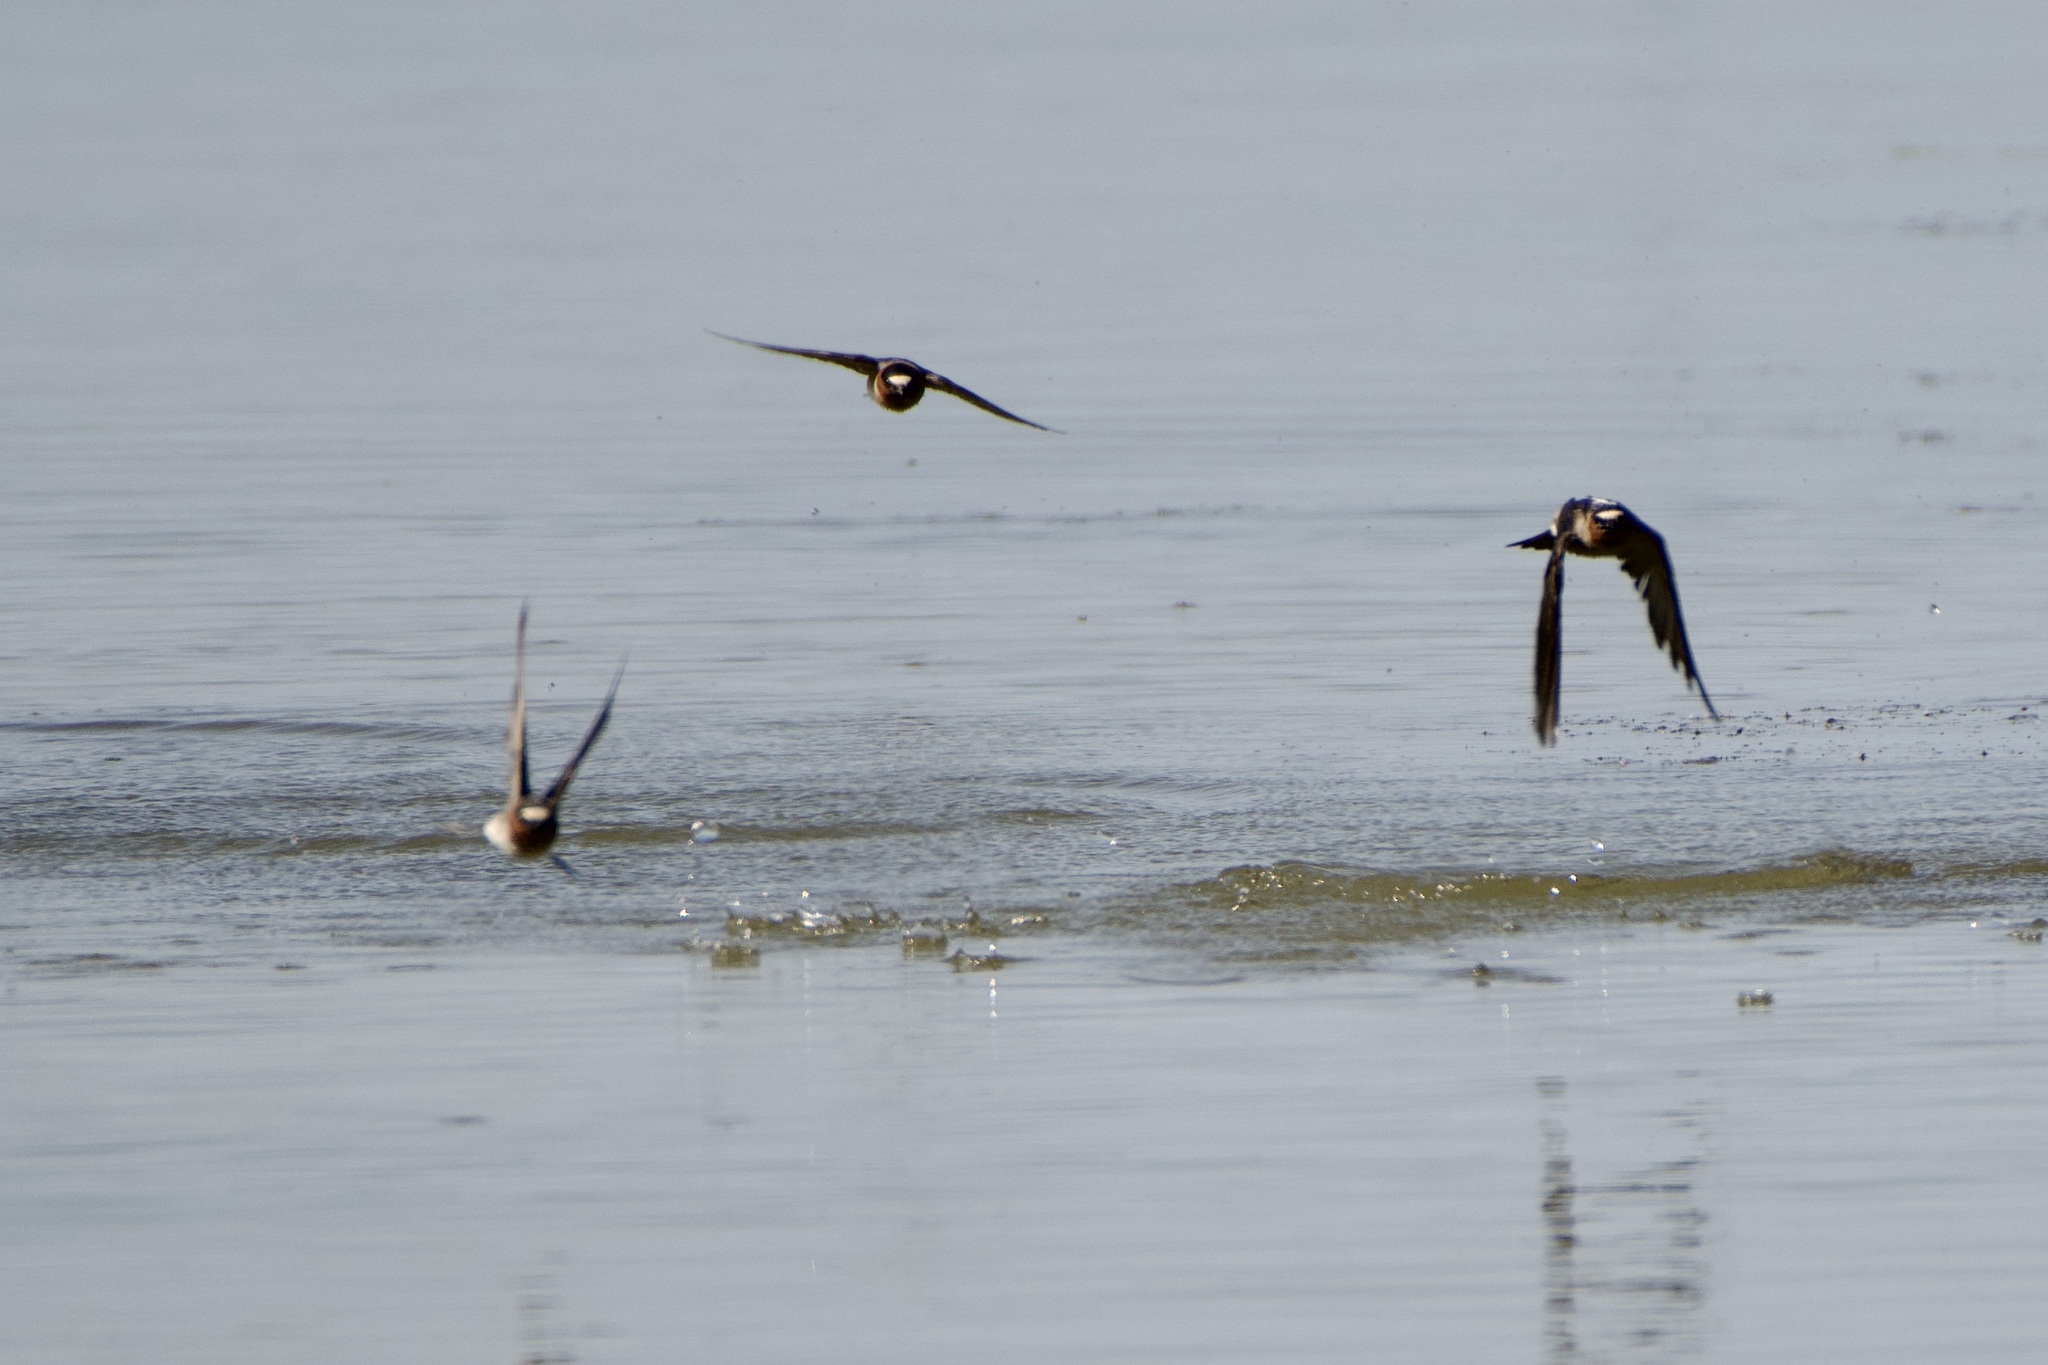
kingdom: Animalia
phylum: Chordata
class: Aves
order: Passeriformes
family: Hirundinidae
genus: Petrochelidon
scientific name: Petrochelidon pyrrhonota
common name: American cliff swallow
